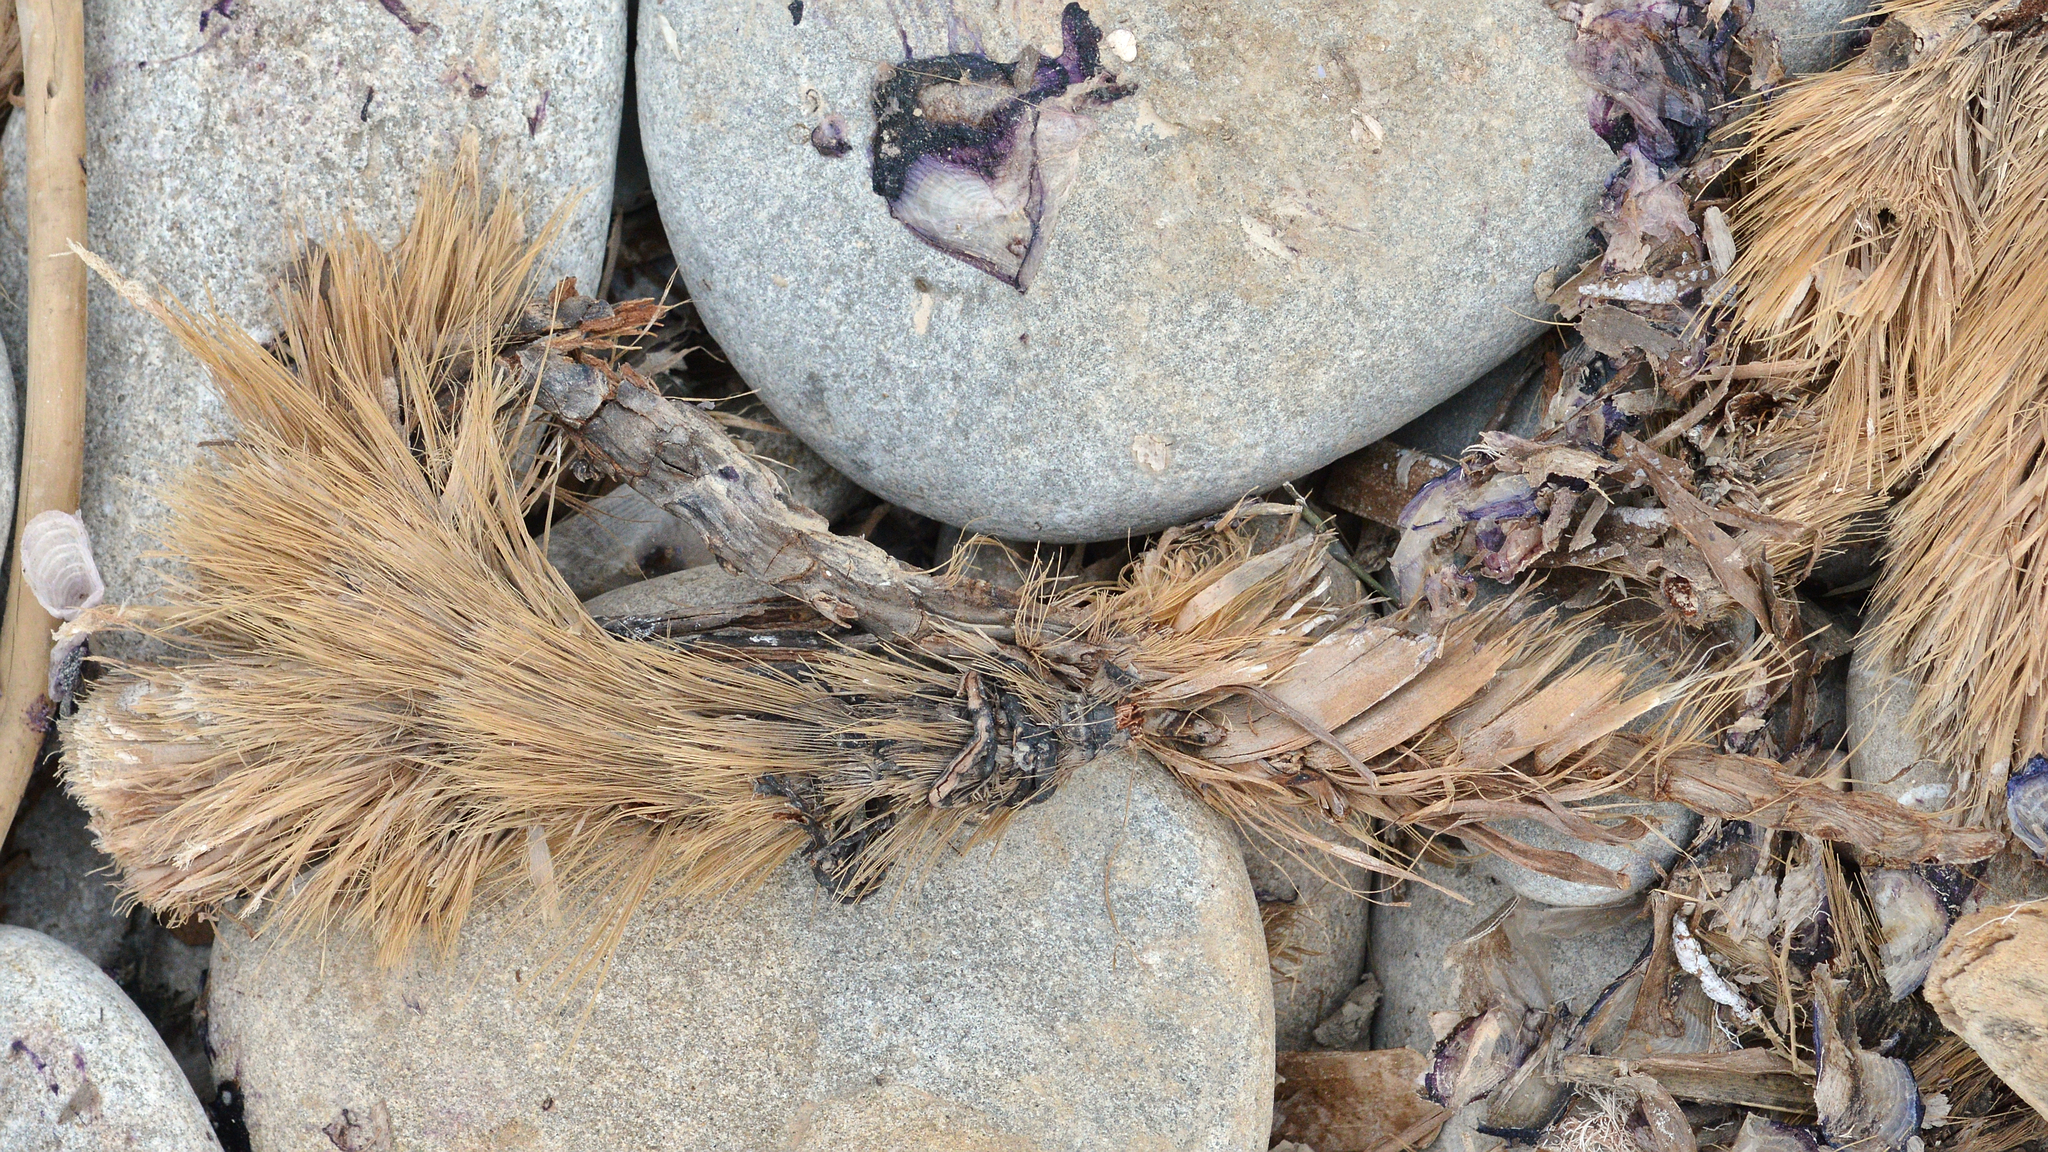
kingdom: Plantae
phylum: Tracheophyta
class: Liliopsida
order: Alismatales
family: Posidoniaceae
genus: Posidonia
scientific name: Posidonia oceanica
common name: Mediterranean tapeweed
